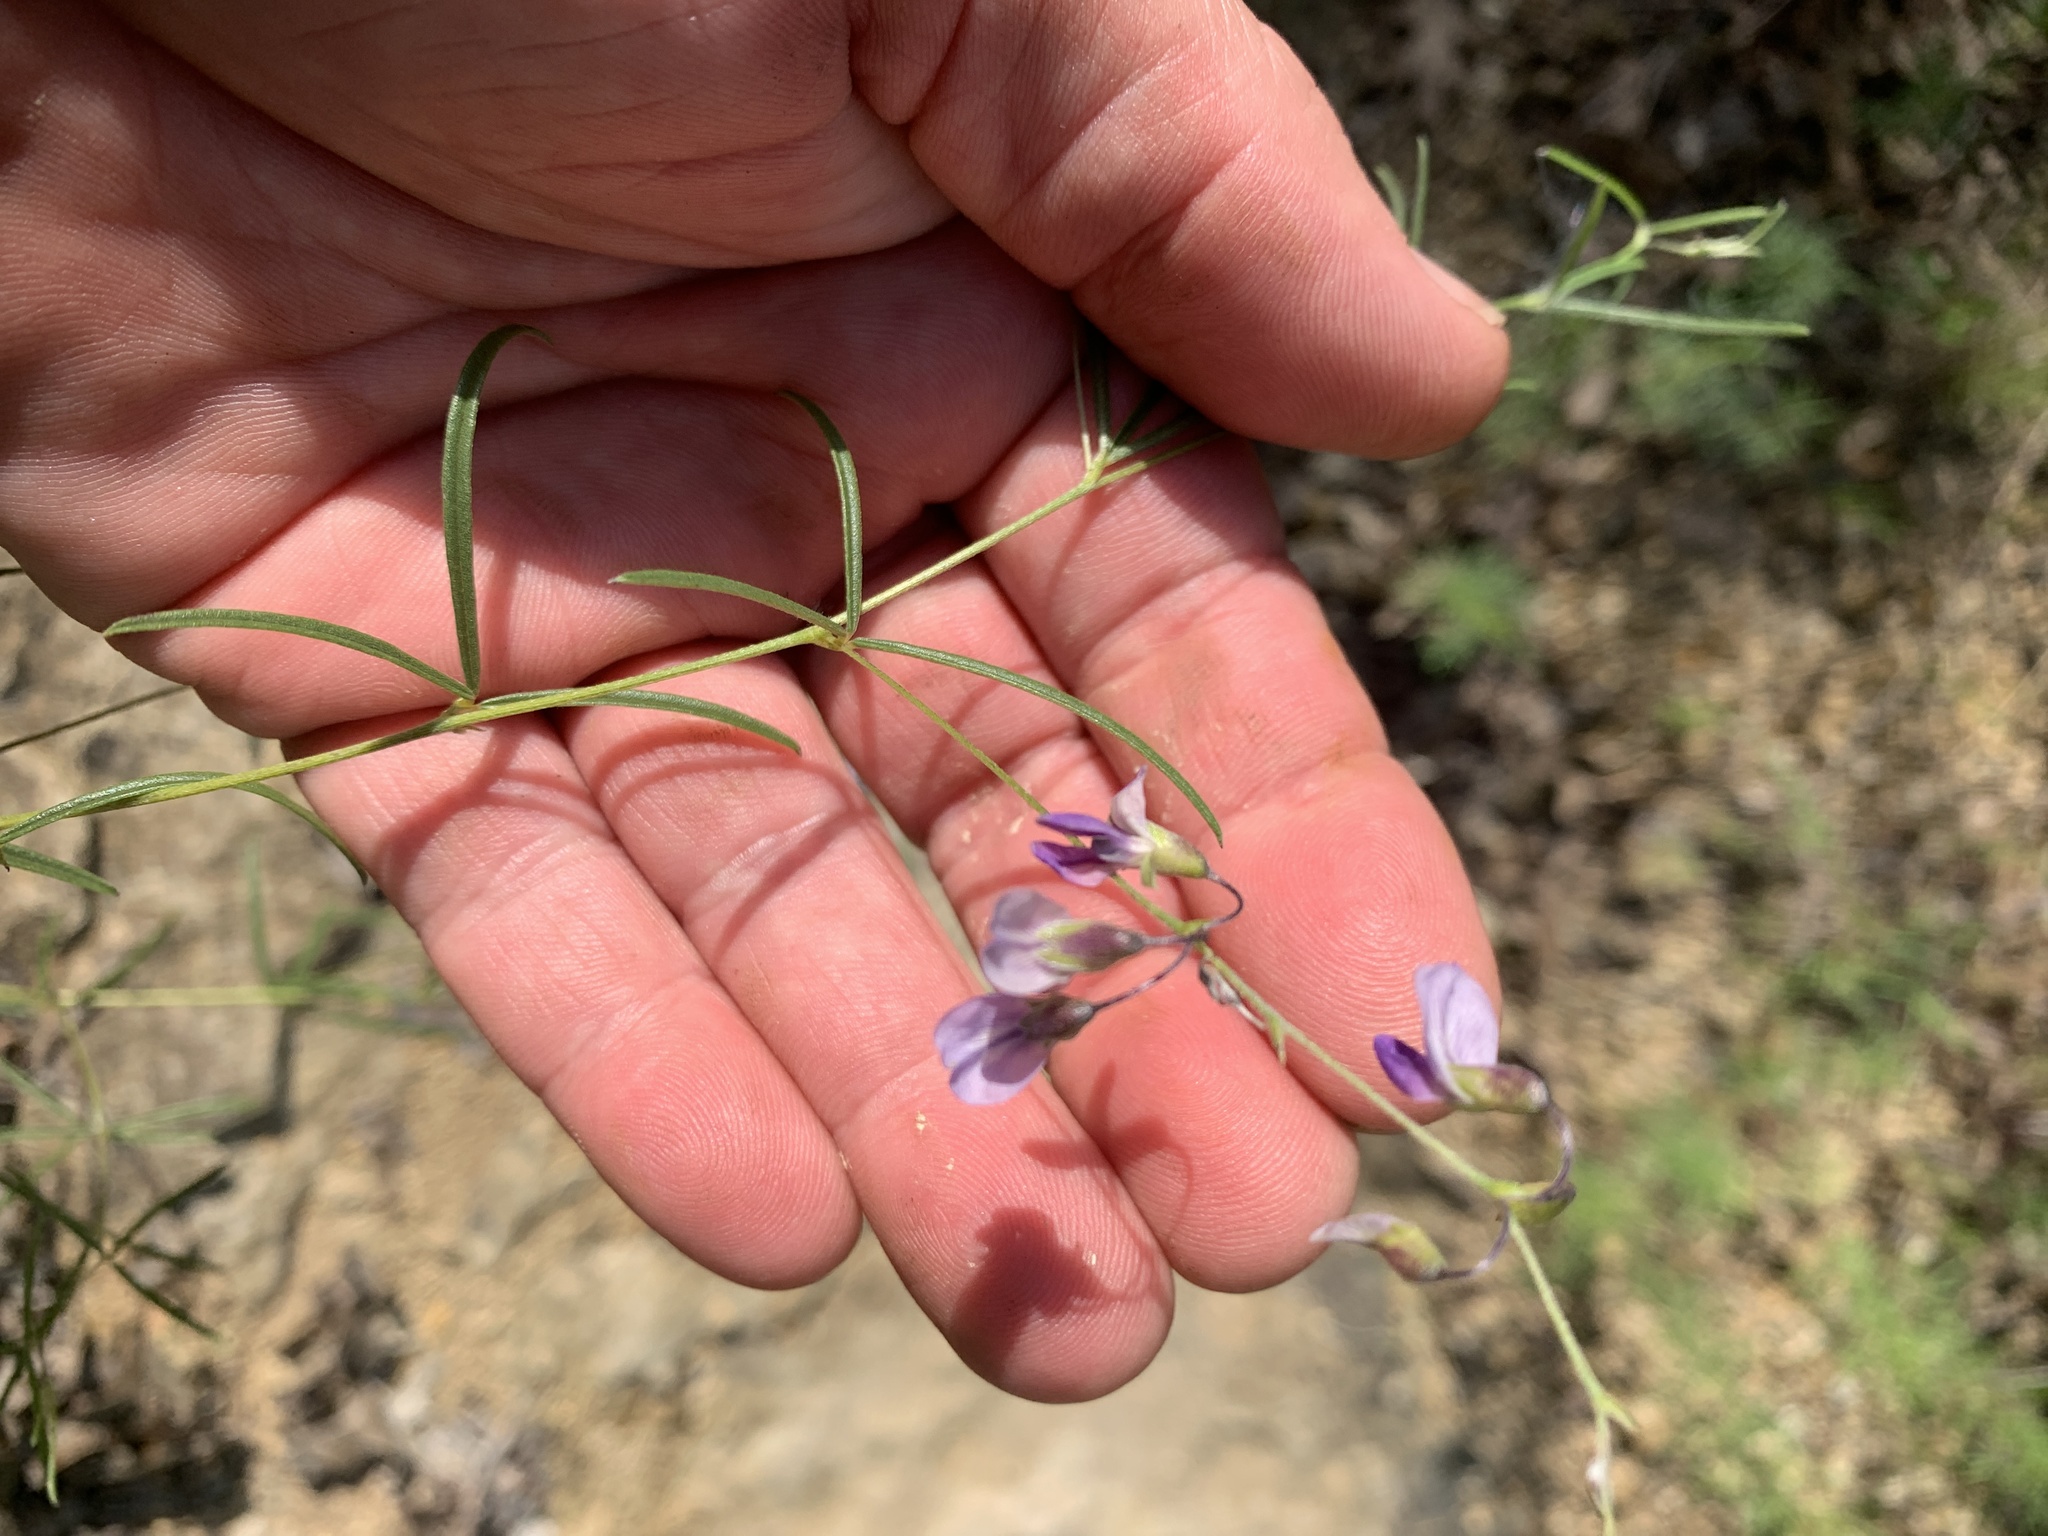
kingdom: Plantae
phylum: Tracheophyta
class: Magnoliopsida
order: Fabales
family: Fabaceae
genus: Pediomelum
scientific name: Pediomelum linearifolium
